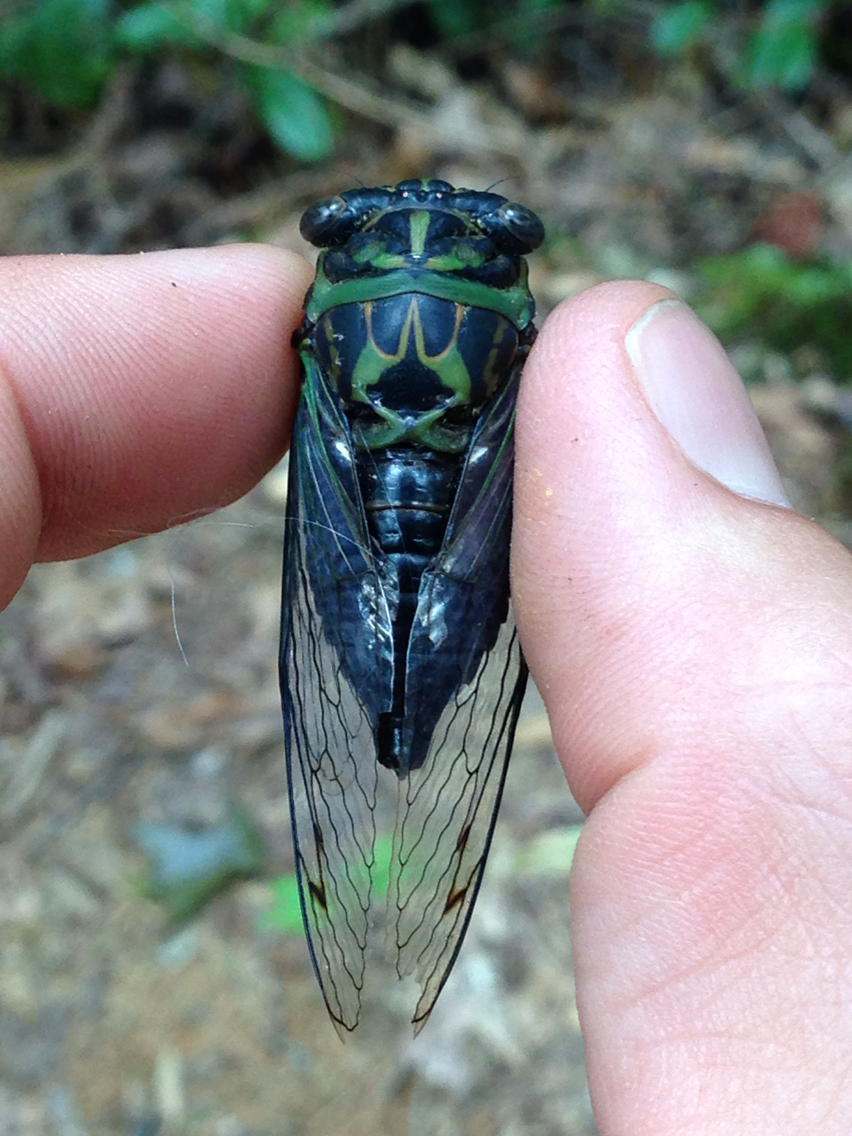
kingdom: Animalia
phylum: Arthropoda
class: Insecta
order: Hemiptera
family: Cicadidae
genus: Neotibicen
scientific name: Neotibicen linnei
